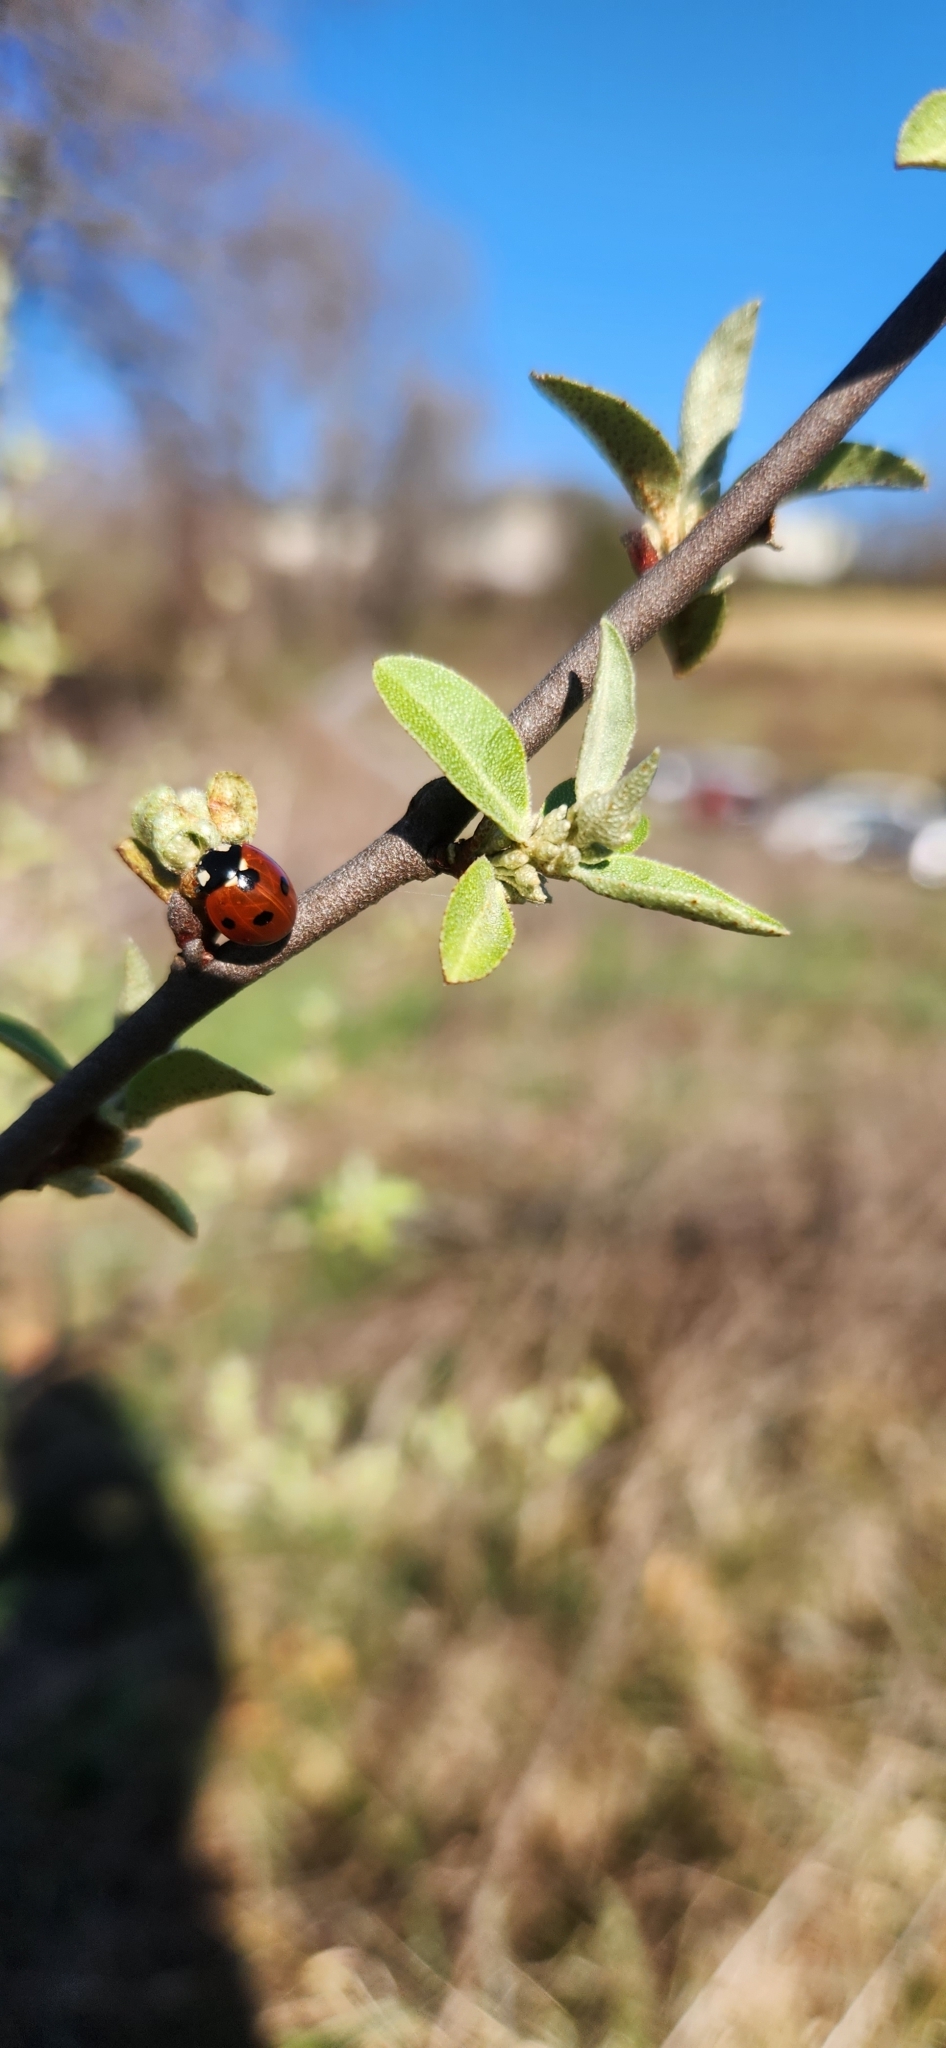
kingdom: Animalia
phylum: Arthropoda
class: Insecta
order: Coleoptera
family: Coccinellidae
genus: Coccinella
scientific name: Coccinella septempunctata
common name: Sevenspotted lady beetle
